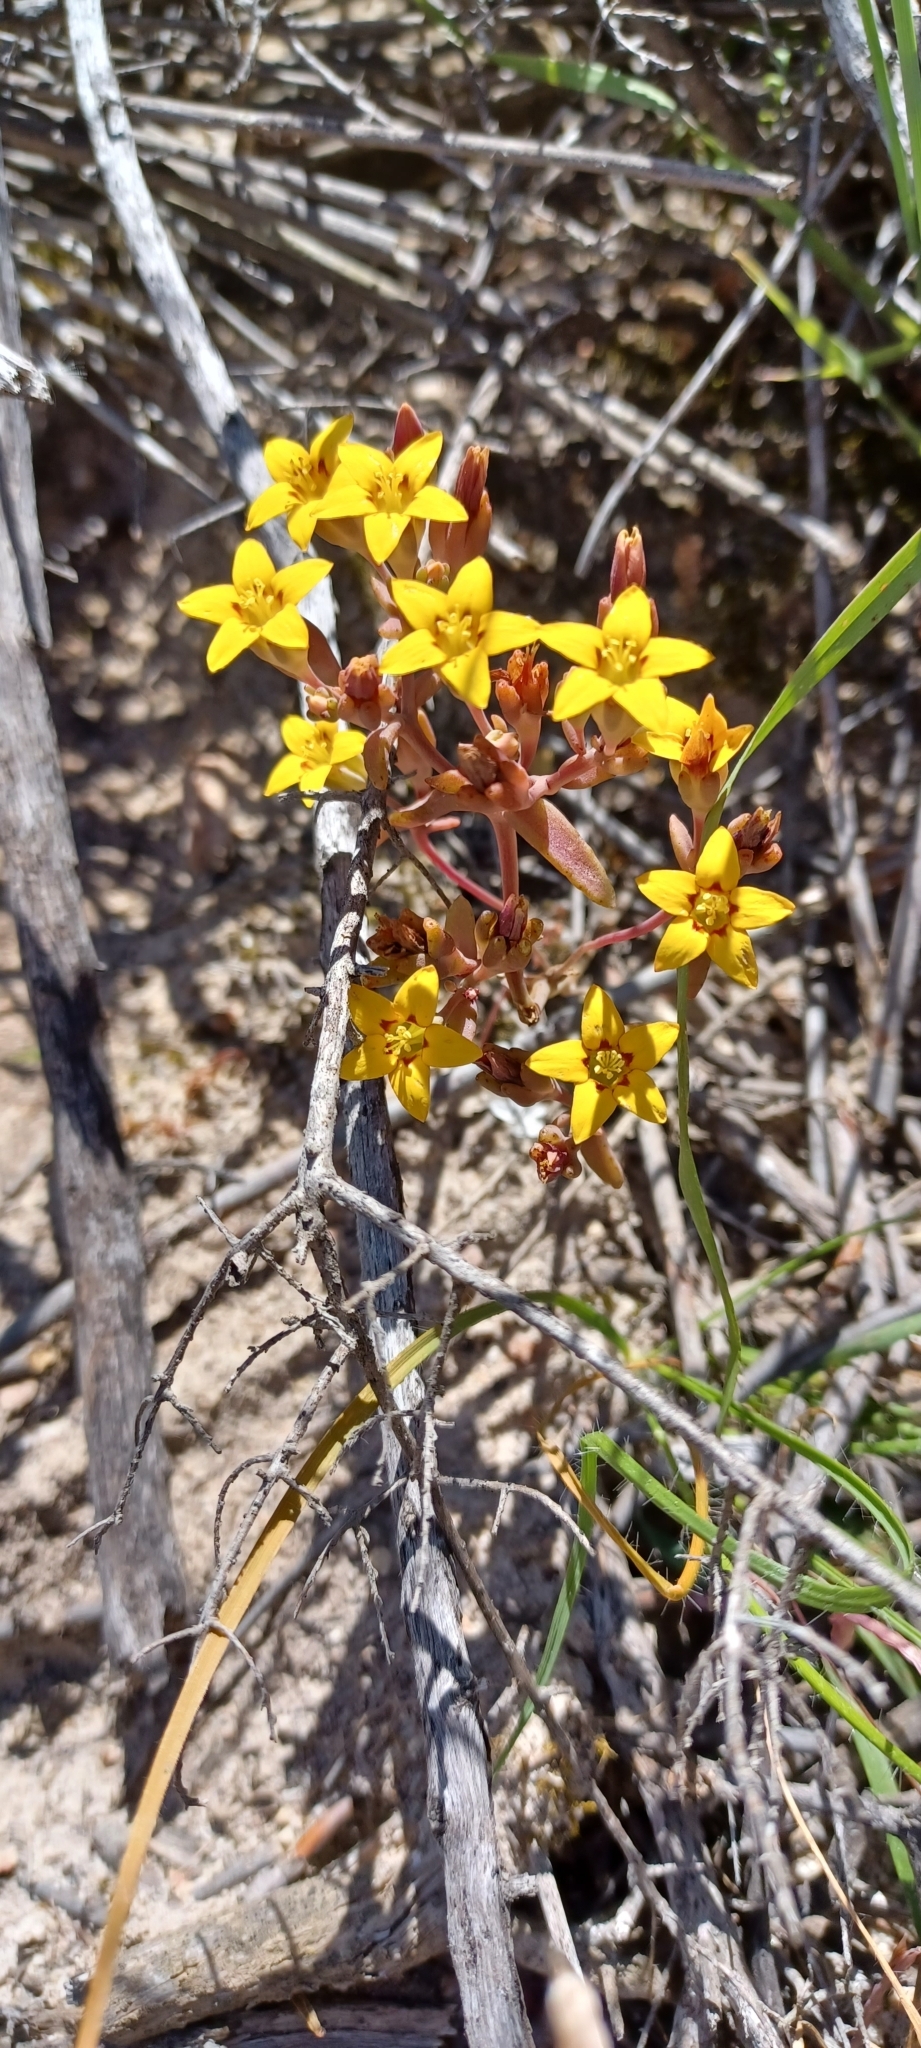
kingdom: Plantae
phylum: Tracheophyta
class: Magnoliopsida
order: Saxifragales
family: Crassulaceae
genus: Crassula
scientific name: Crassula dichotoma
